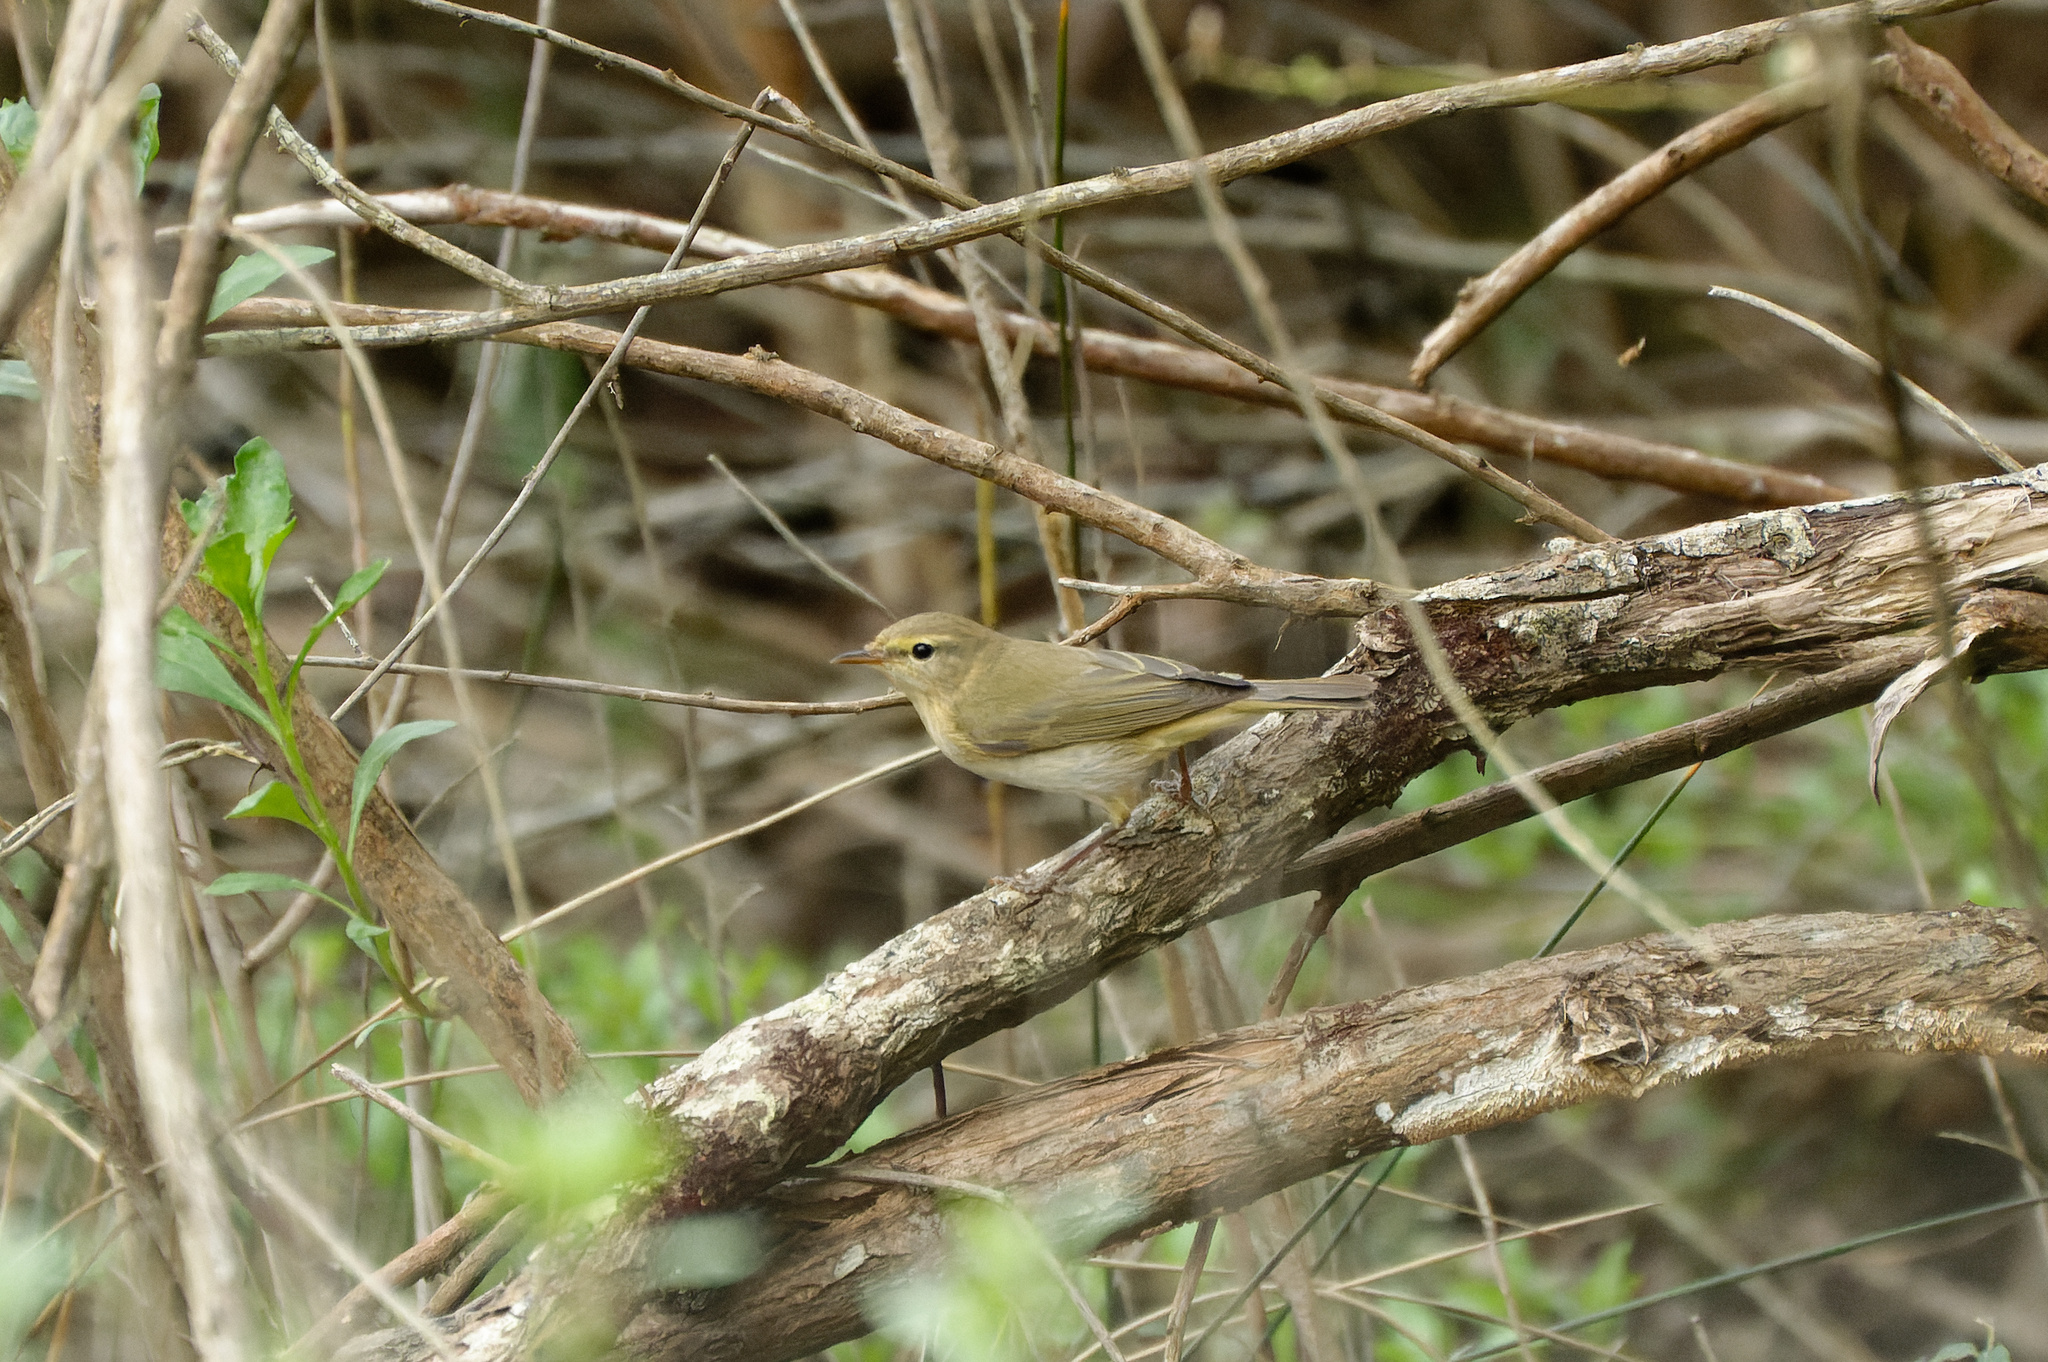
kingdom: Animalia
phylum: Chordata
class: Aves
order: Passeriformes
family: Phylloscopidae
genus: Phylloscopus
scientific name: Phylloscopus trochilus
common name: Willow warbler
